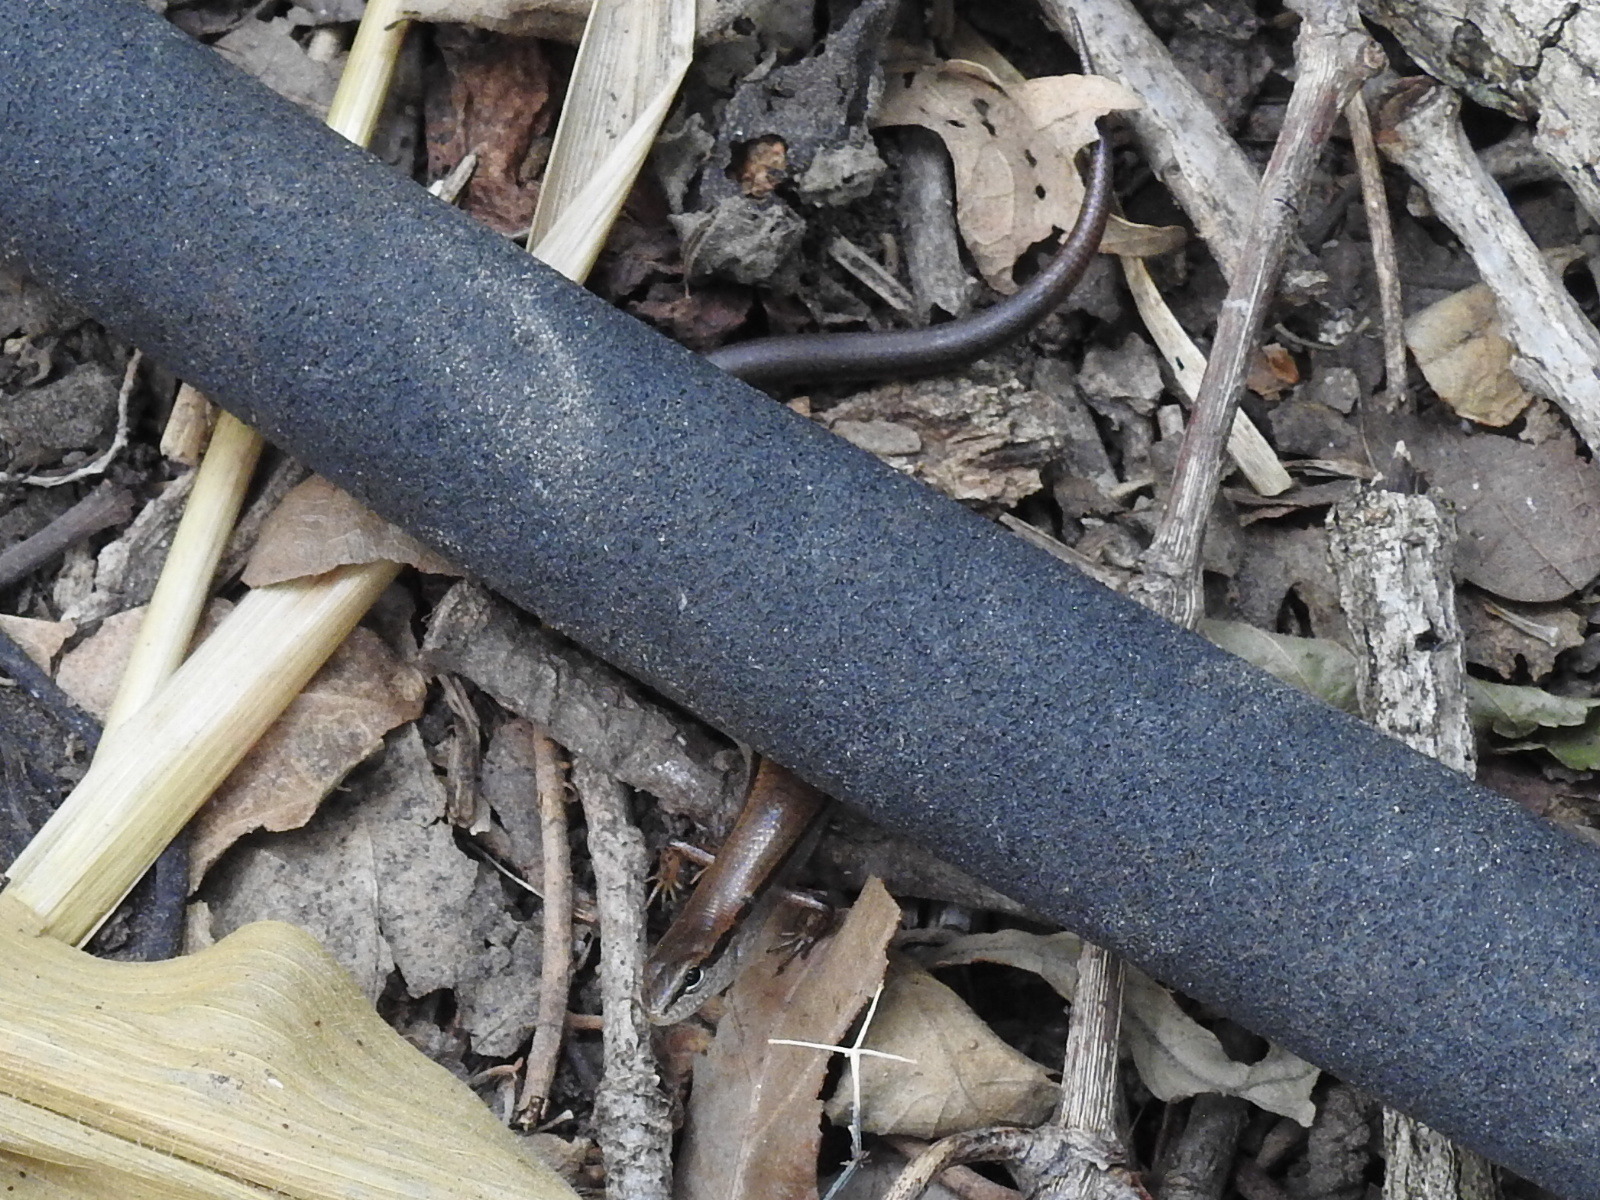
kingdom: Animalia
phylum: Chordata
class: Squamata
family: Scincidae
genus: Scincella
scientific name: Scincella lateralis
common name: Ground skink
